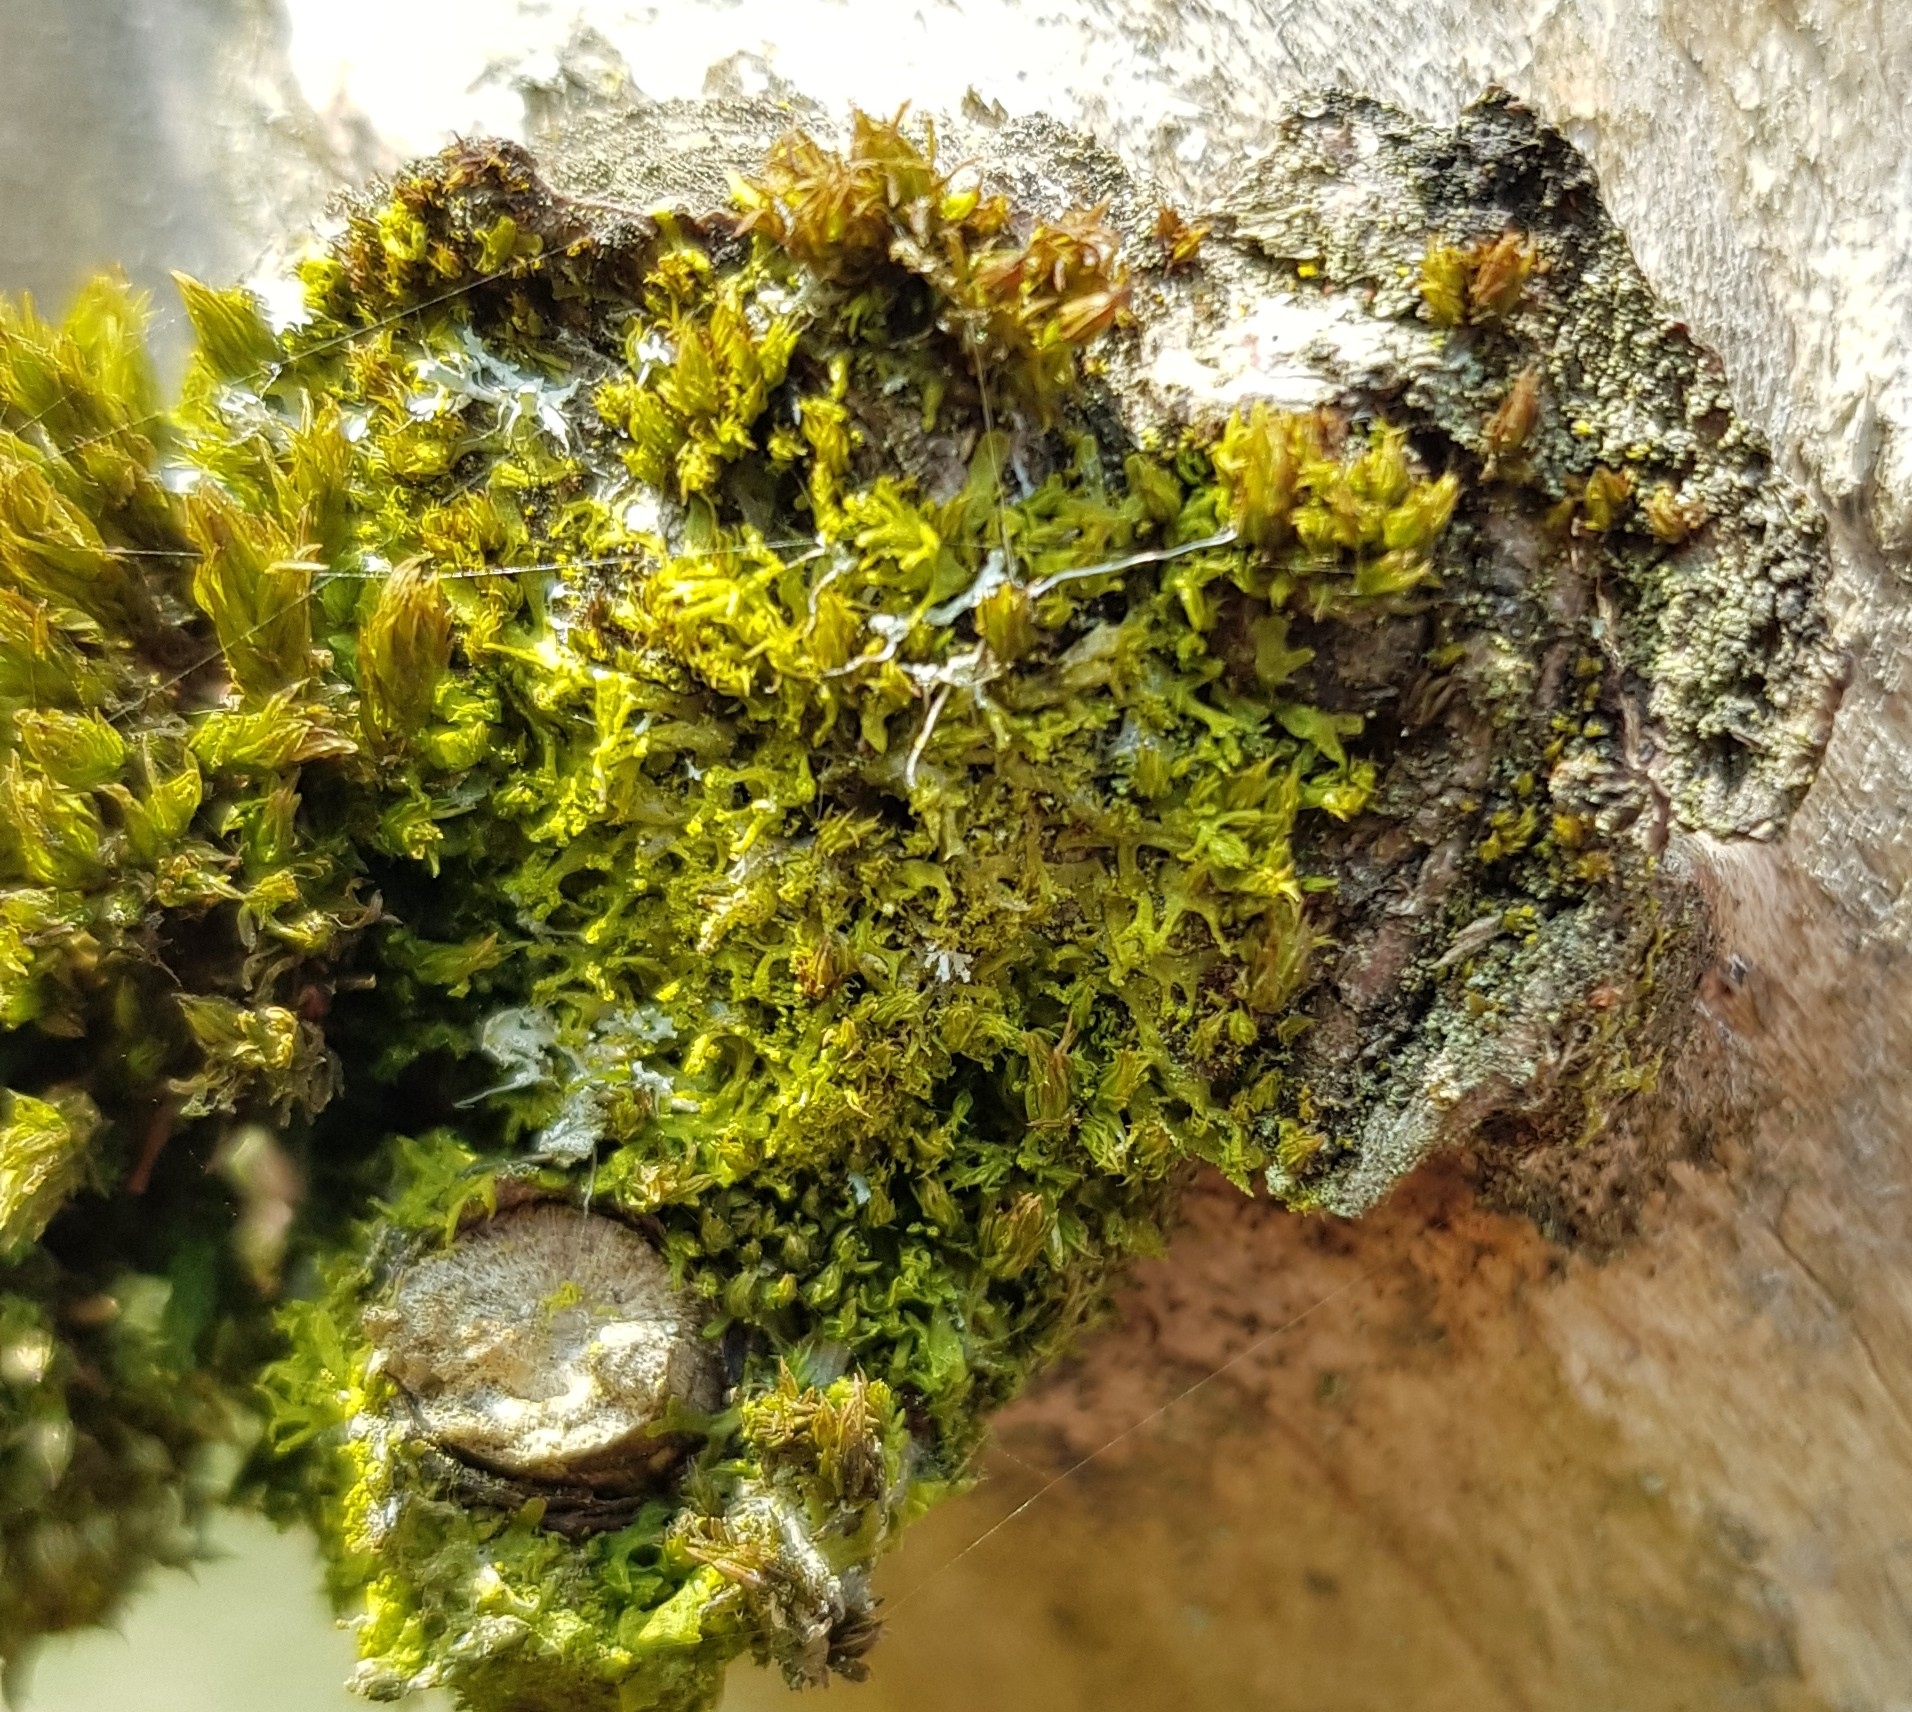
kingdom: Plantae
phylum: Marchantiophyta
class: Jungermanniopsida
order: Metzgeriales
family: Metzgeriaceae
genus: Metzgeria
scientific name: Metzgeria violacea
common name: Blueish veilwort
